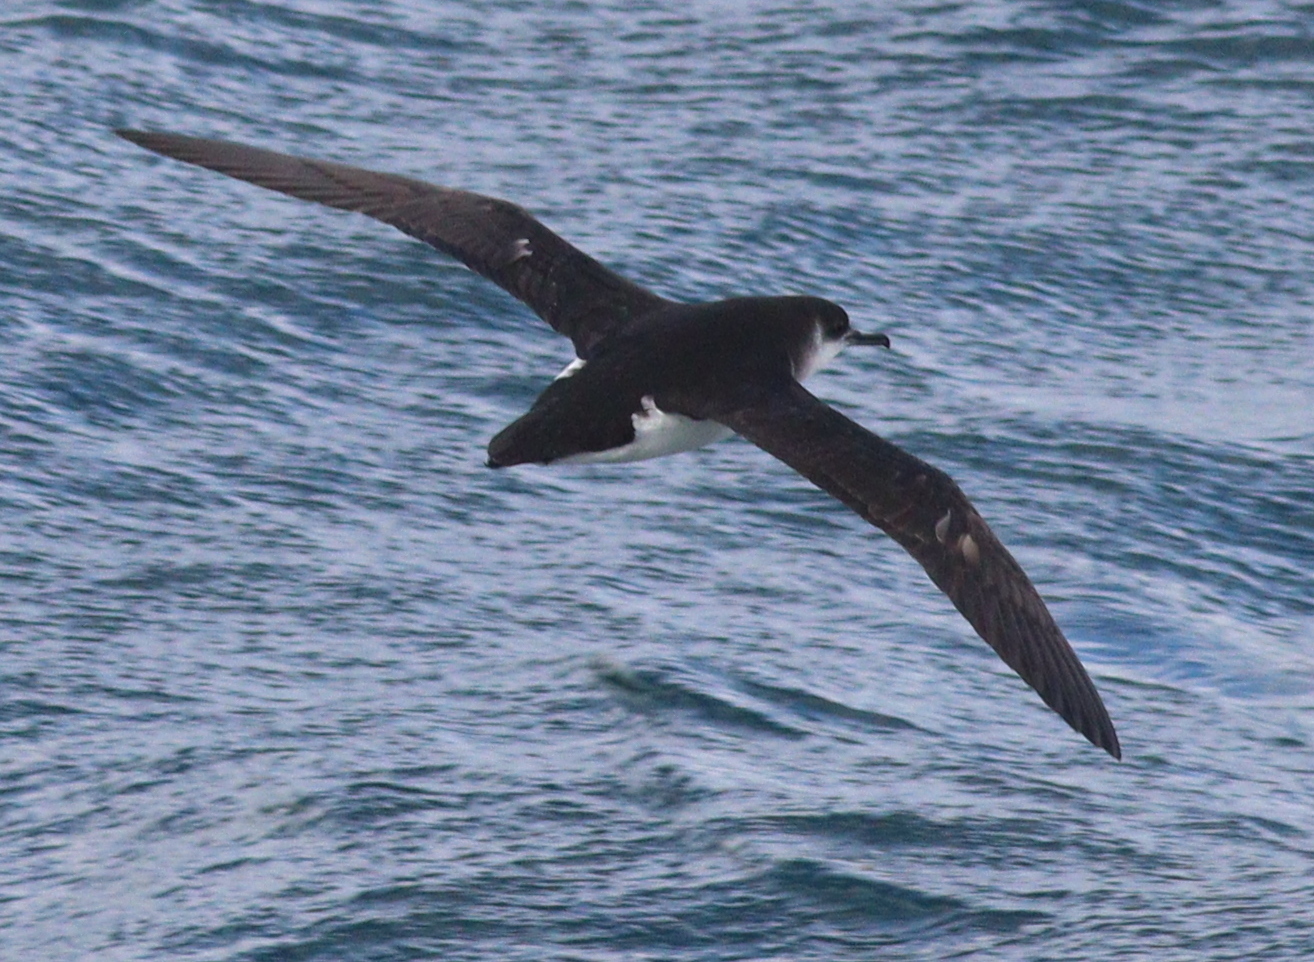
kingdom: Animalia
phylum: Chordata
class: Aves
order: Procellariiformes
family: Procellariidae
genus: Puffinus
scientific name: Puffinus puffinus
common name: Manx shearwater
